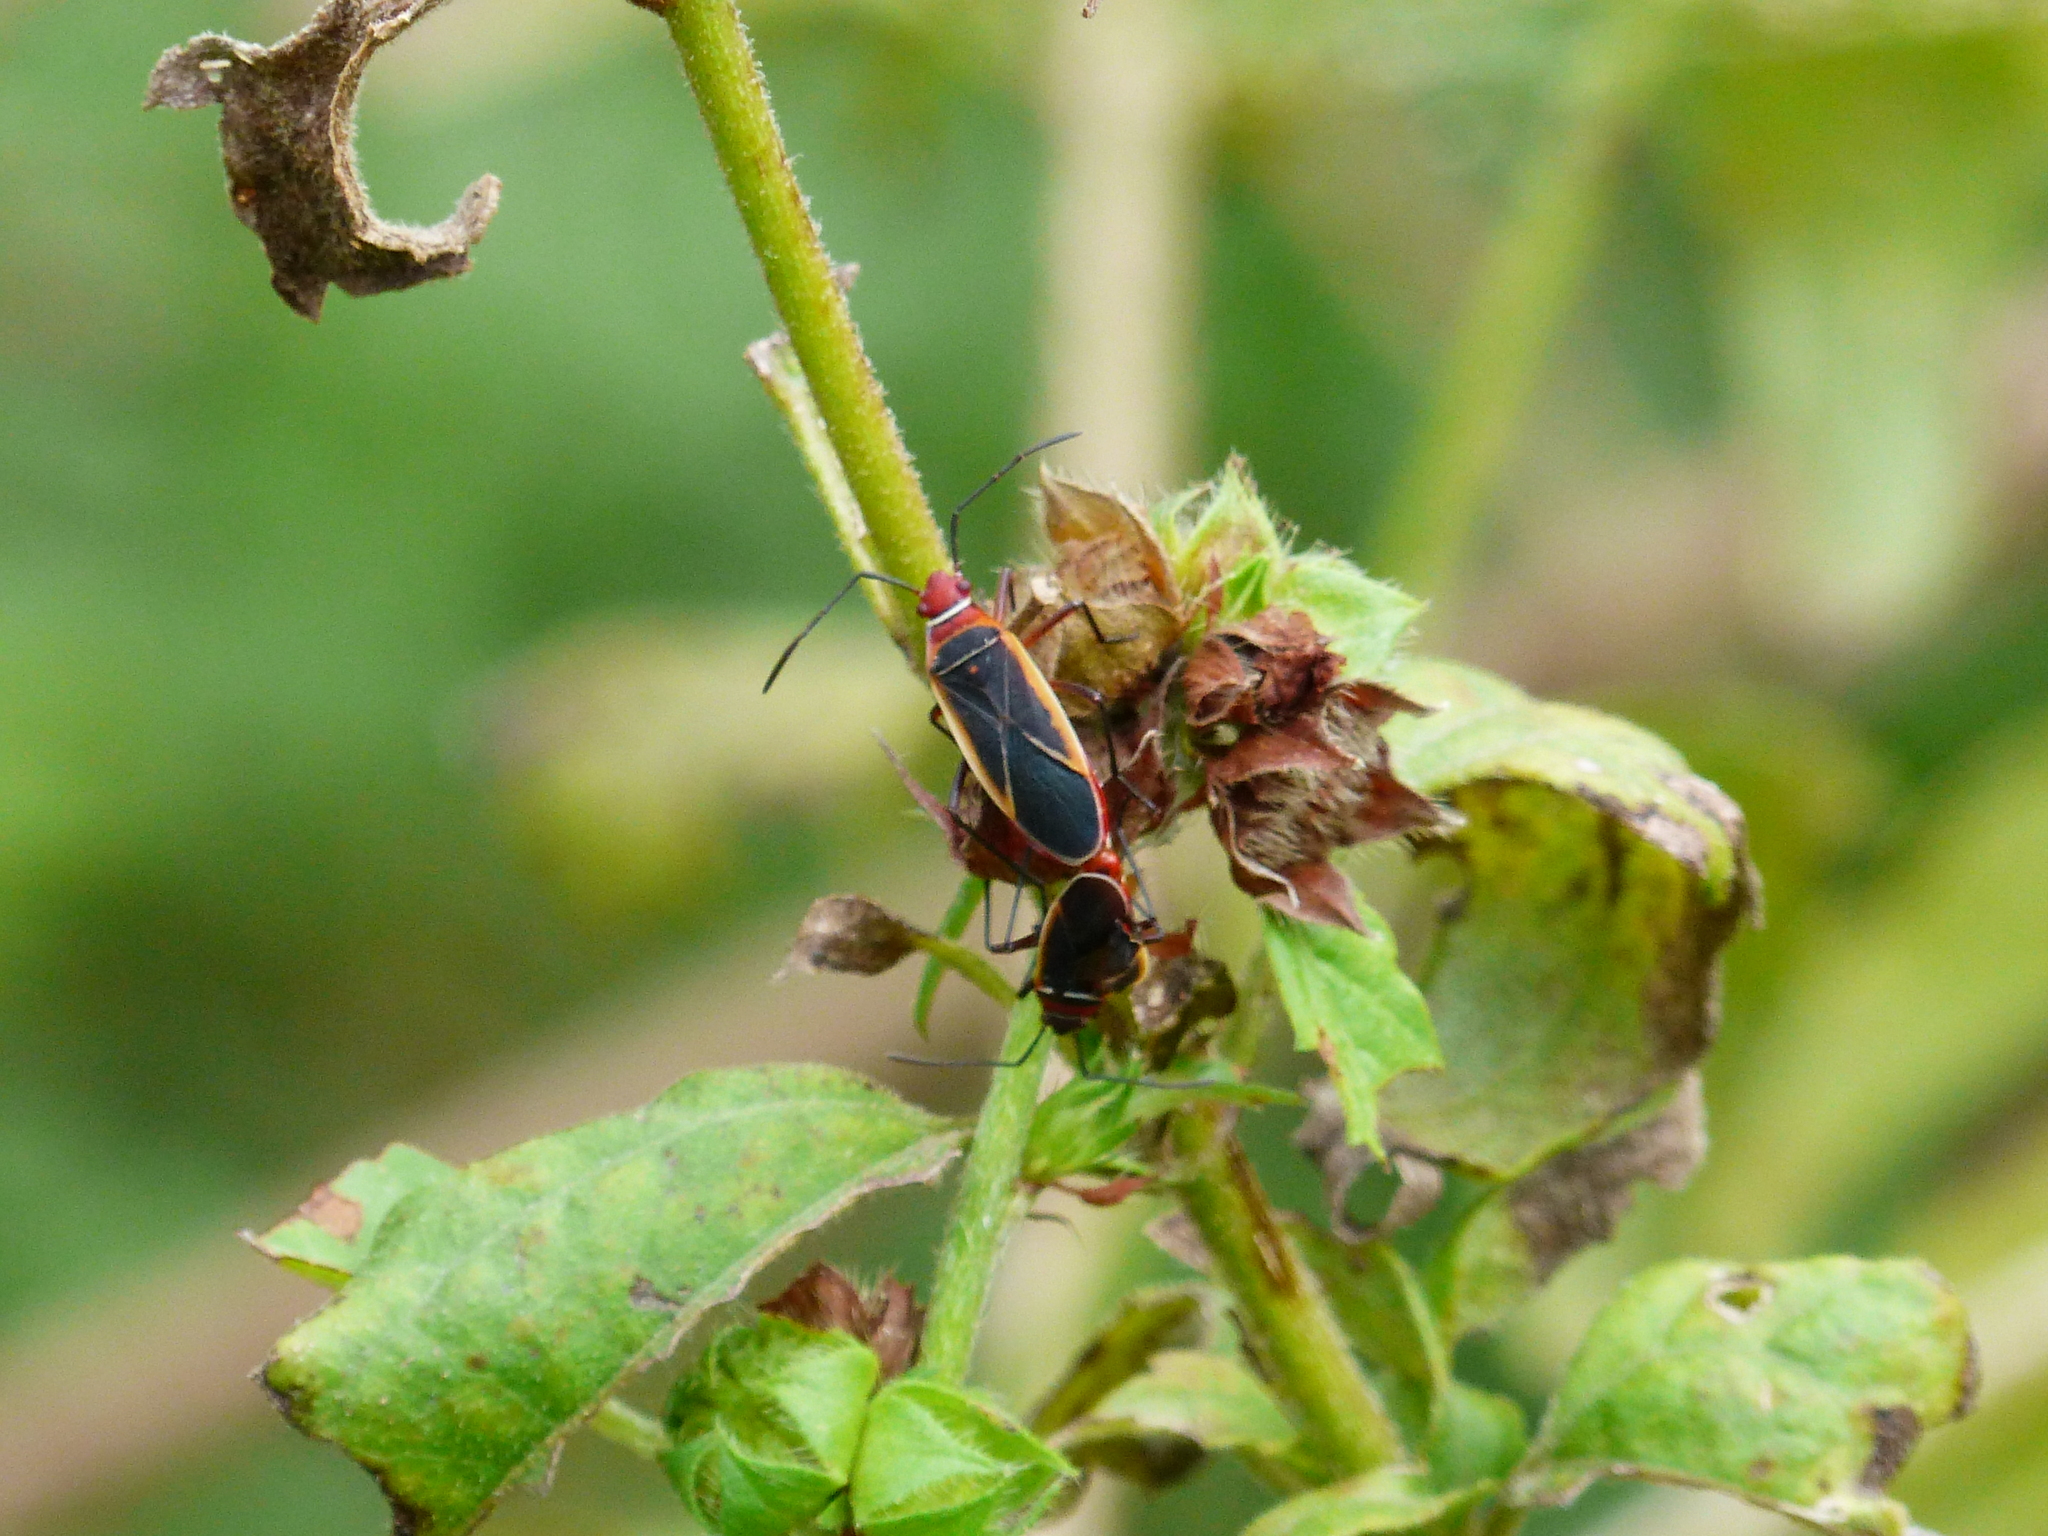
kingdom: Animalia
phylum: Arthropoda
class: Insecta
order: Hemiptera
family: Pyrrhocoridae
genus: Dysdercus
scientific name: Dysdercus mimulus
